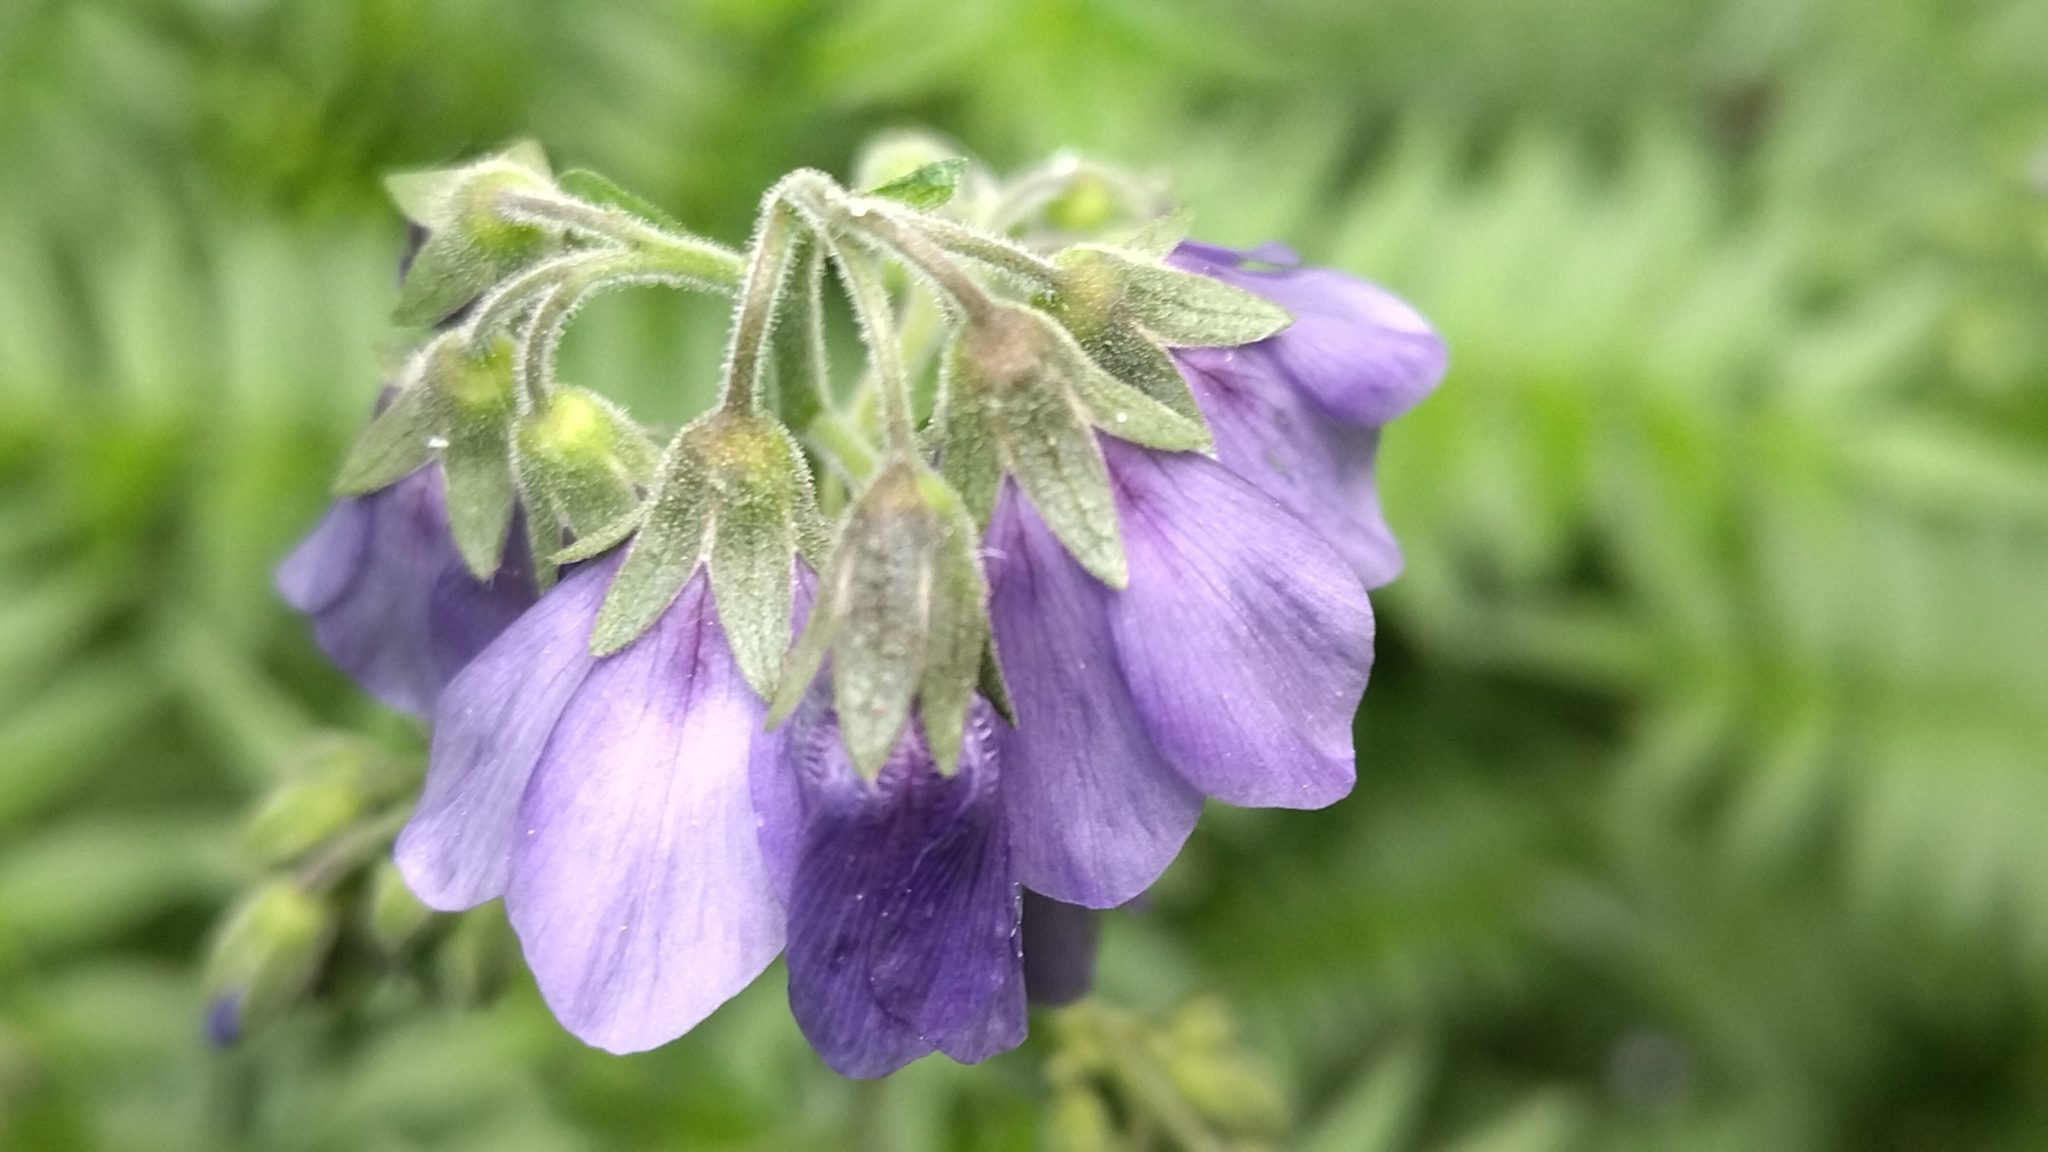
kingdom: Plantae
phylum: Tracheophyta
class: Magnoliopsida
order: Ericales
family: Polemoniaceae
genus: Polemonium
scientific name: Polemonium caeruleum
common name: Jacob's-ladder
